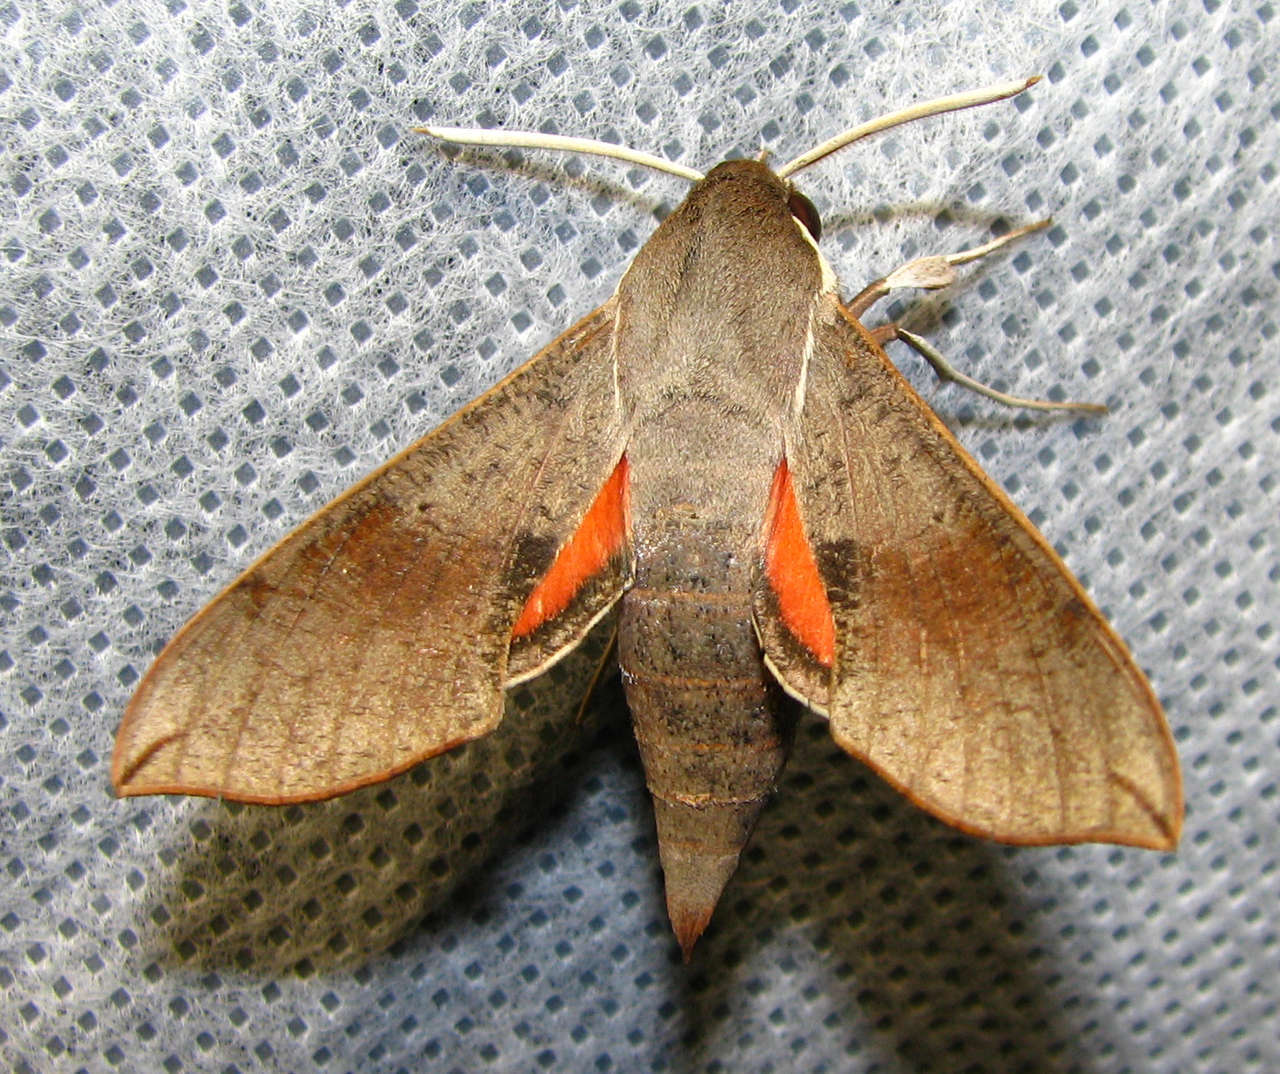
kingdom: Animalia
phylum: Arthropoda
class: Insecta
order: Lepidoptera
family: Sphingidae
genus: Hippotion
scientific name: Hippotion scrofa
